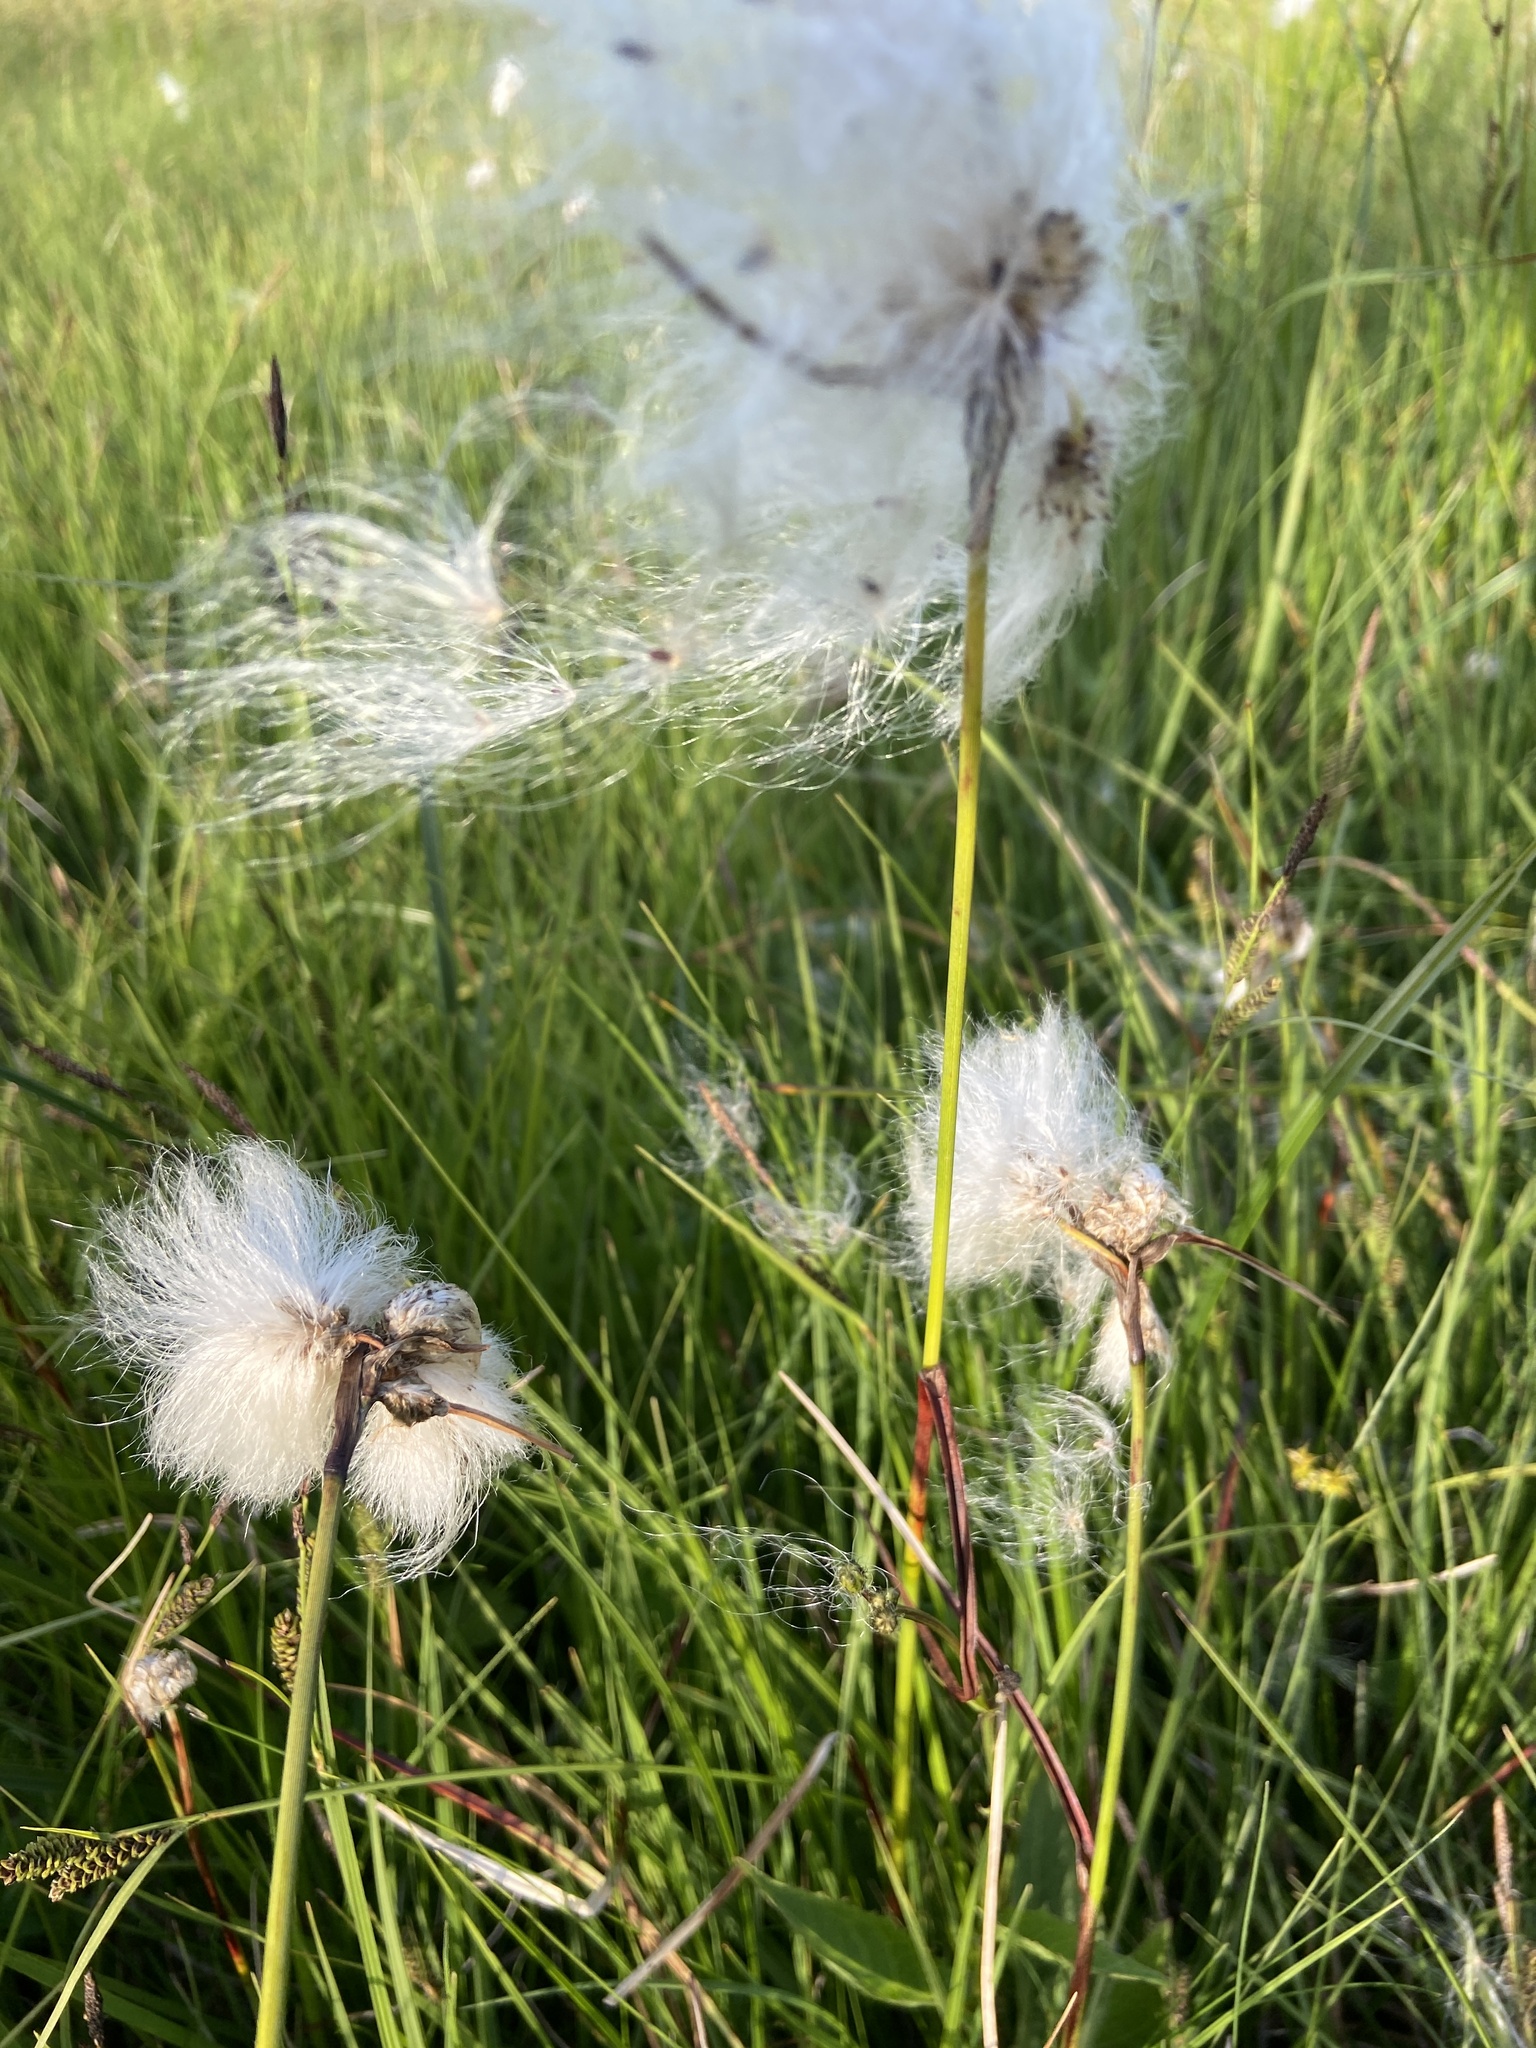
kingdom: Plantae
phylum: Tracheophyta
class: Liliopsida
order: Poales
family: Cyperaceae
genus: Eriophorum
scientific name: Eriophorum angustifolium
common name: Common cottongrass
